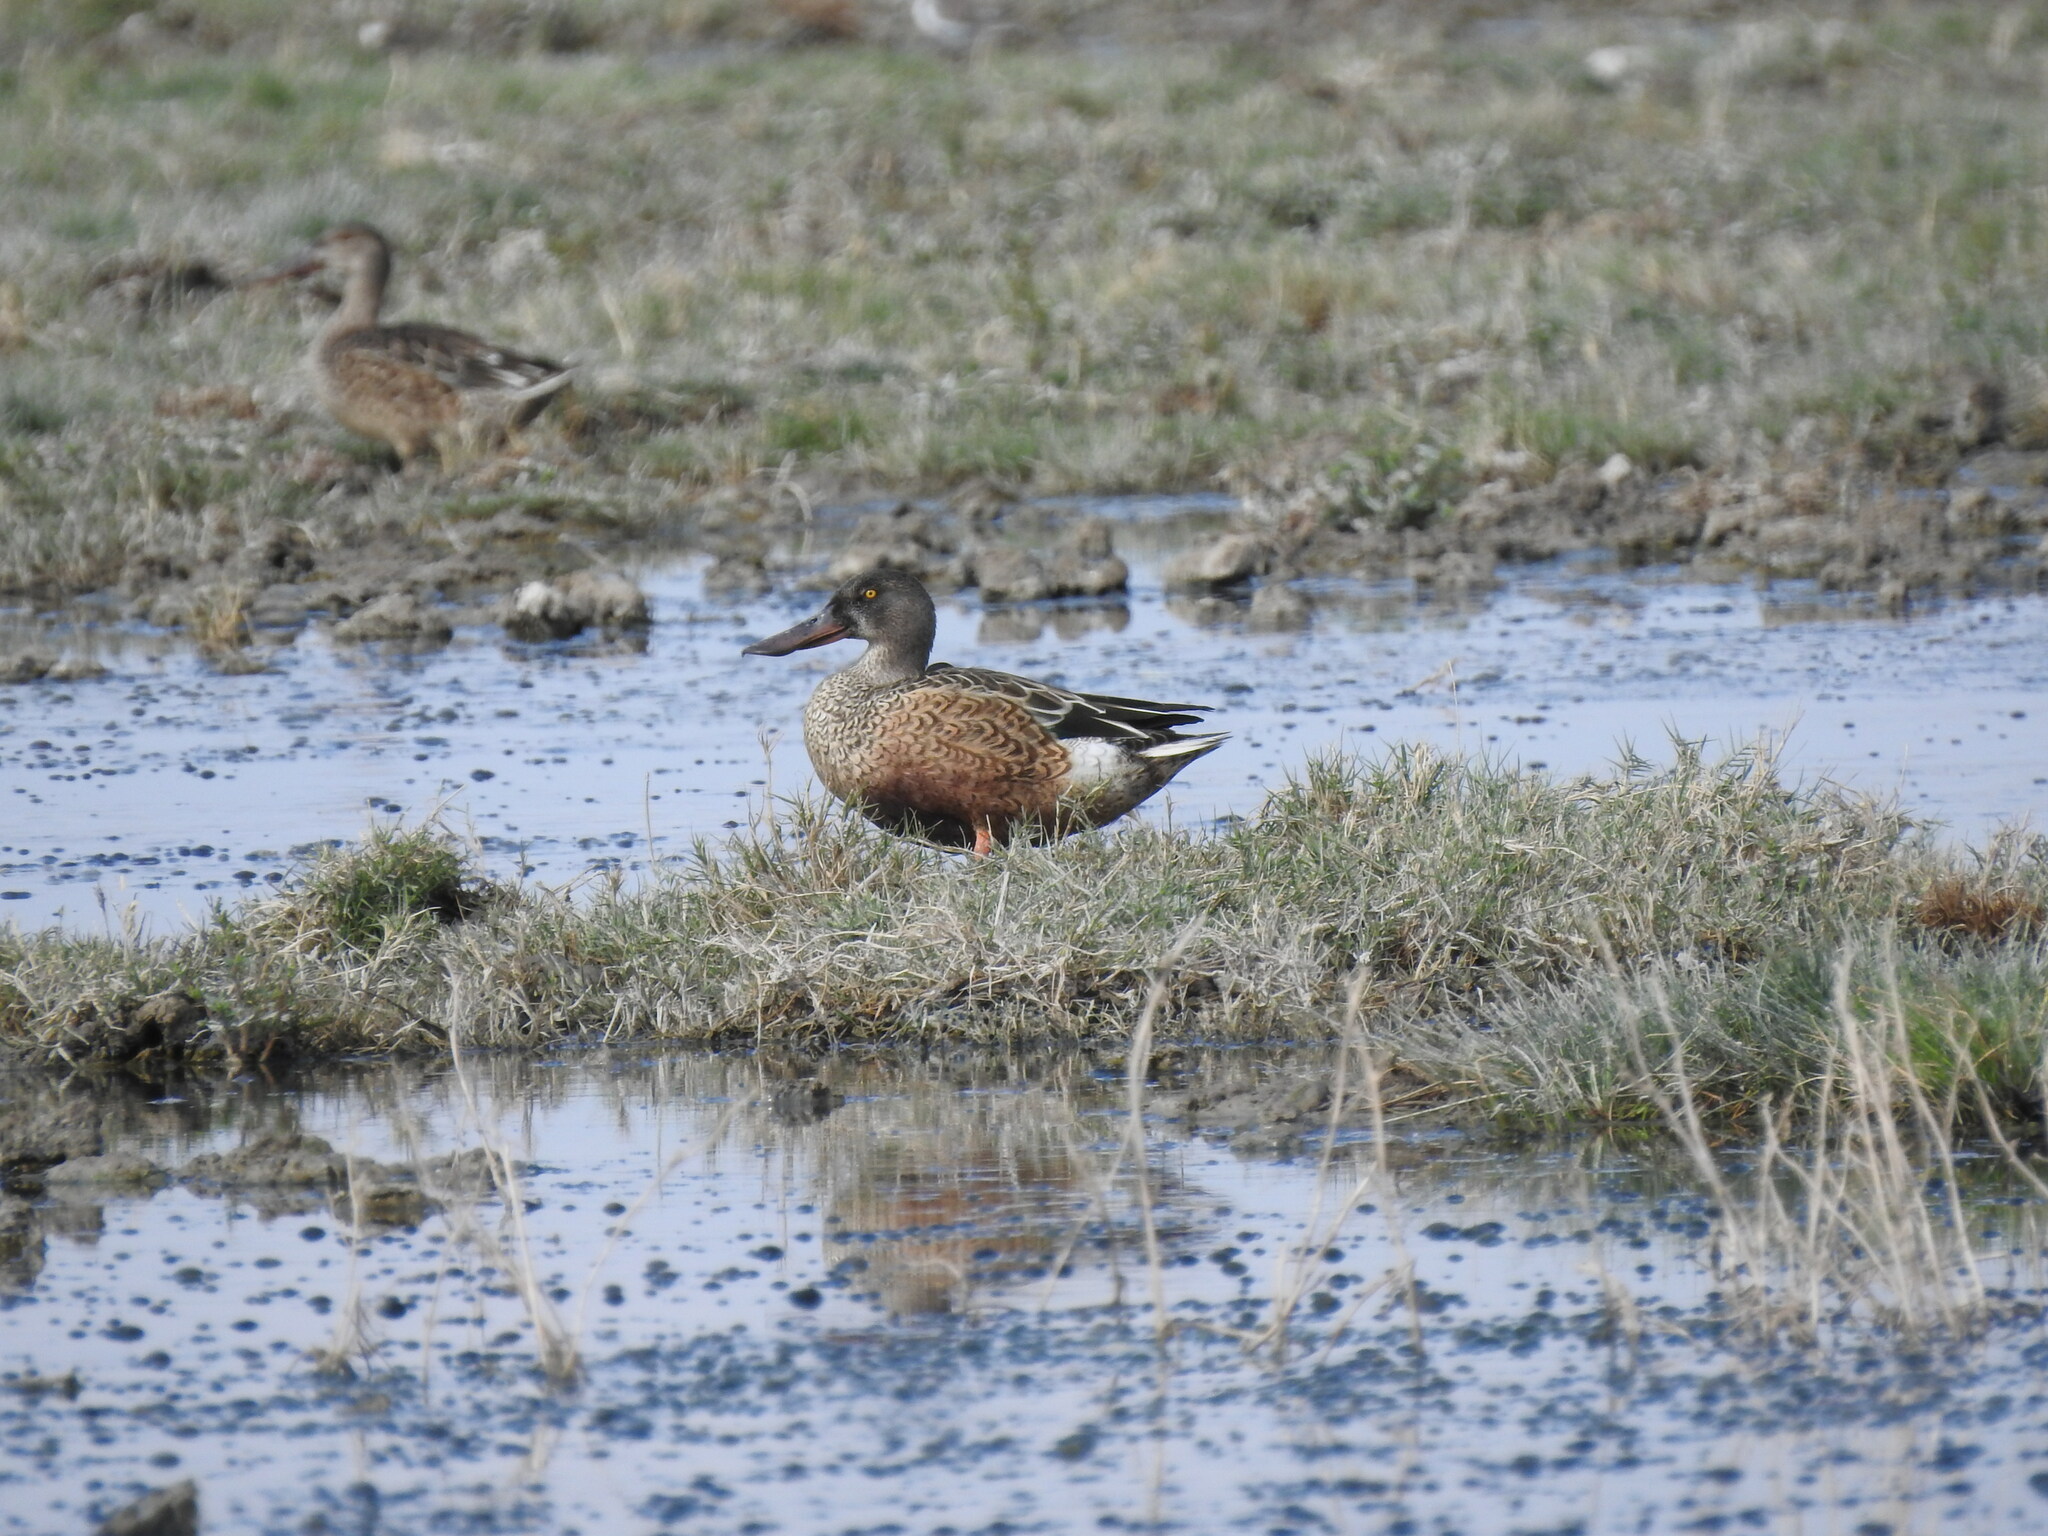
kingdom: Animalia
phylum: Chordata
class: Aves
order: Anseriformes
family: Anatidae
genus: Spatula
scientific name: Spatula clypeata
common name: Northern shoveler
